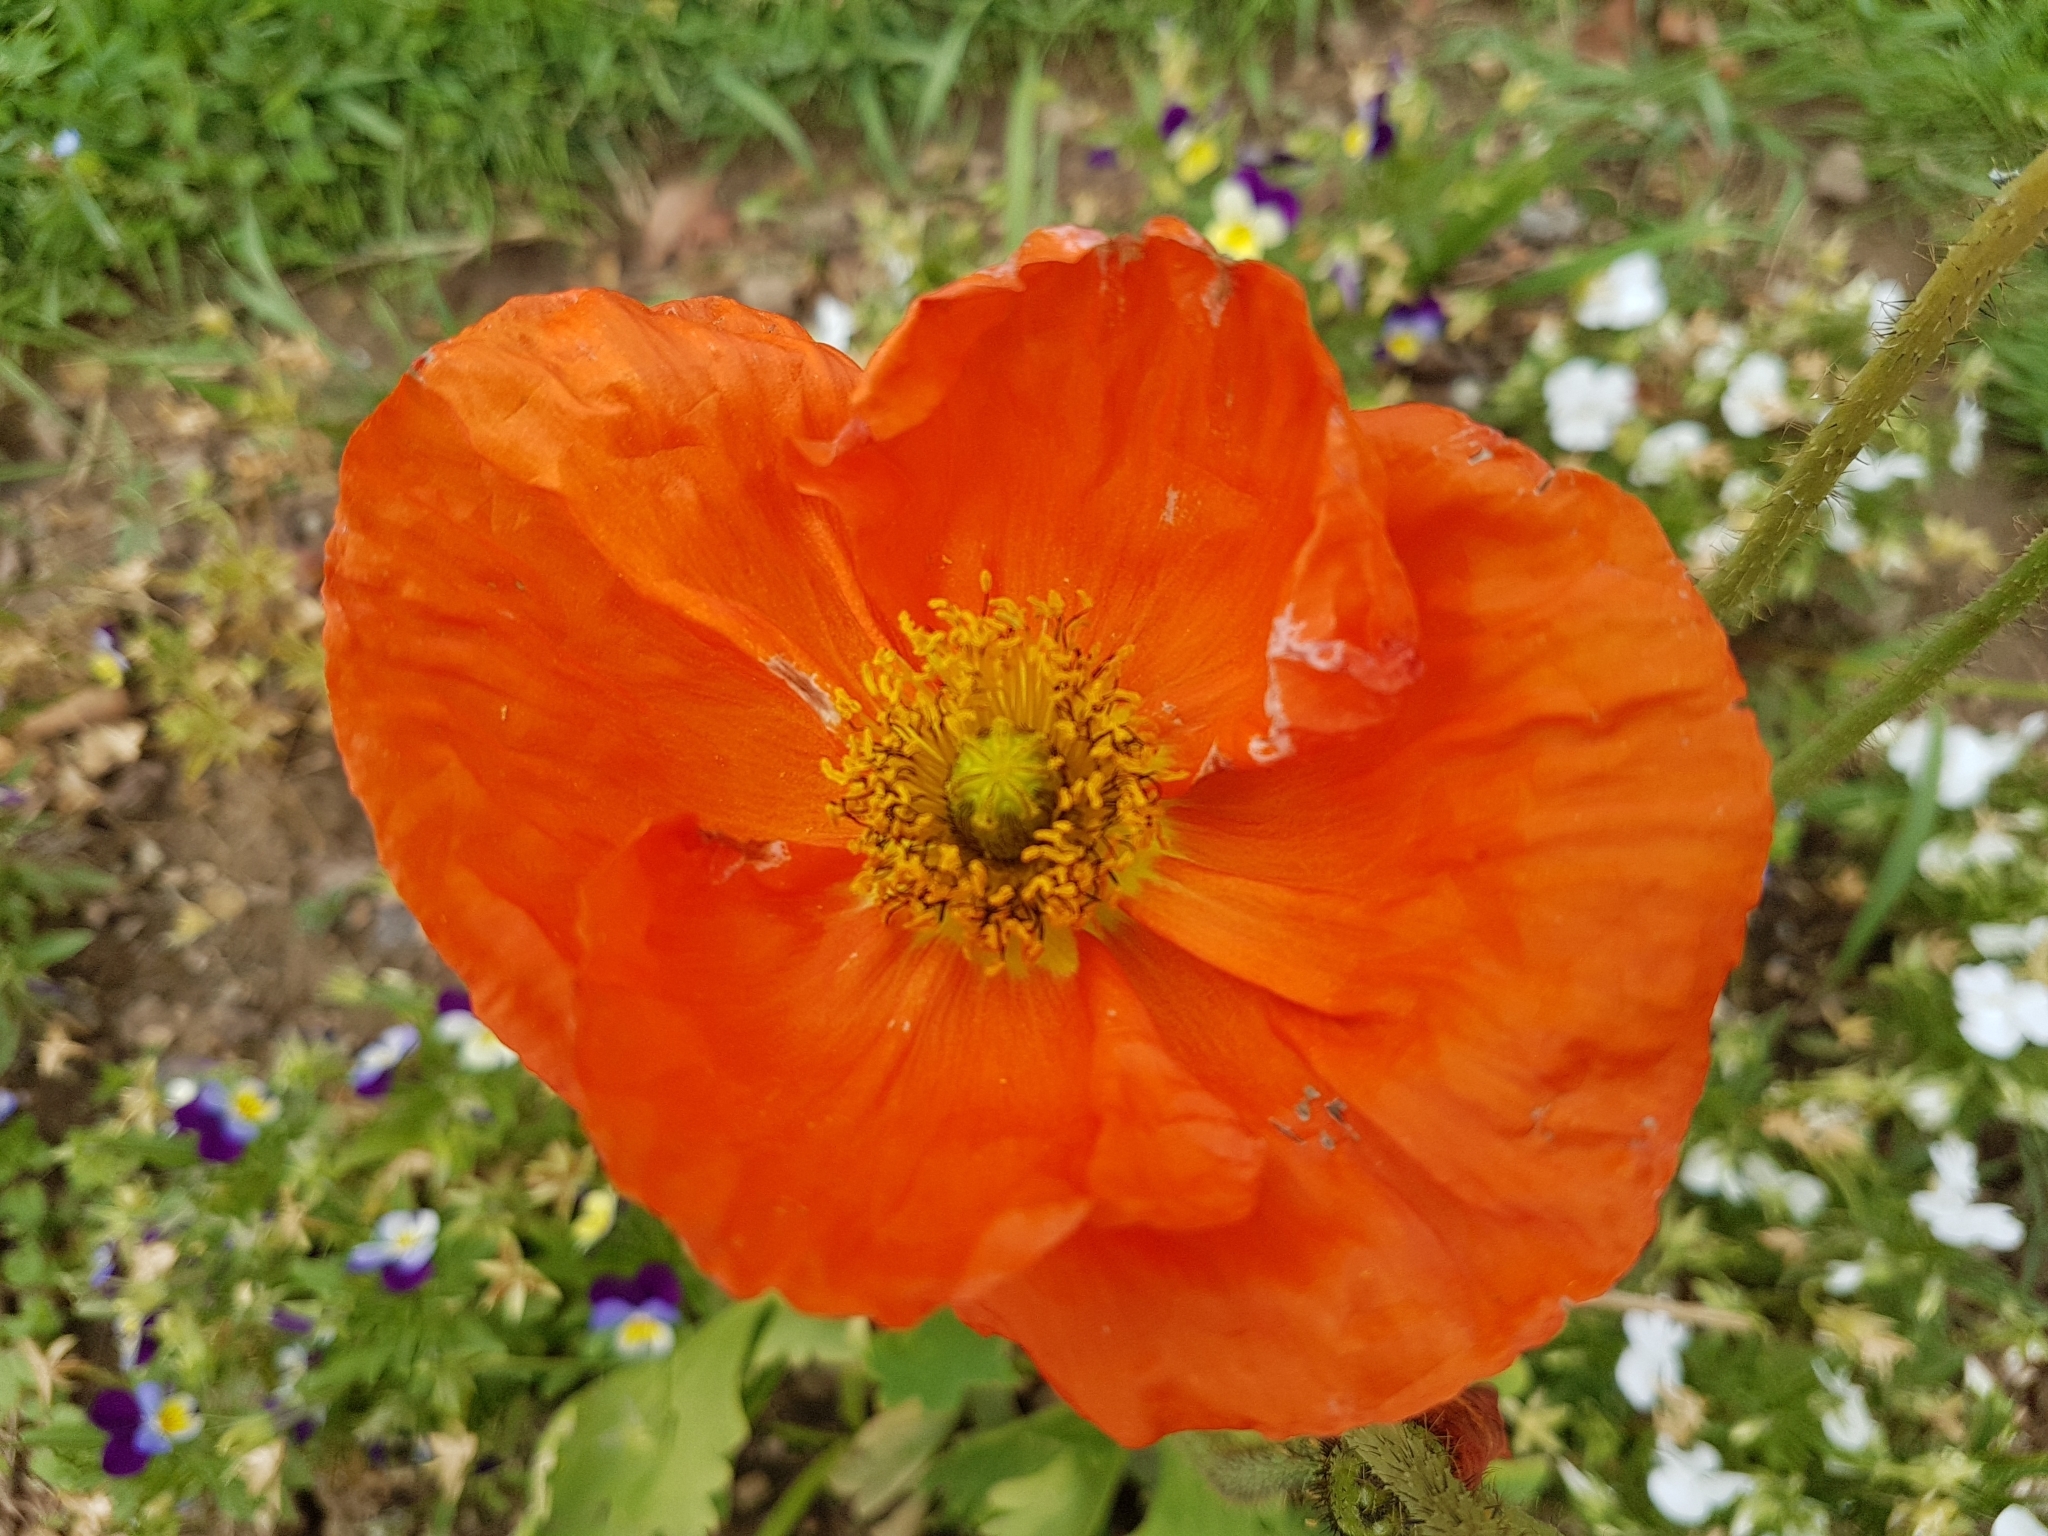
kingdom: Plantae
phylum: Tracheophyta
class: Magnoliopsida
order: Ranunculales
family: Papaveraceae
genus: Papaver
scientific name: Papaver nudicaule
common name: Arctic poppy
